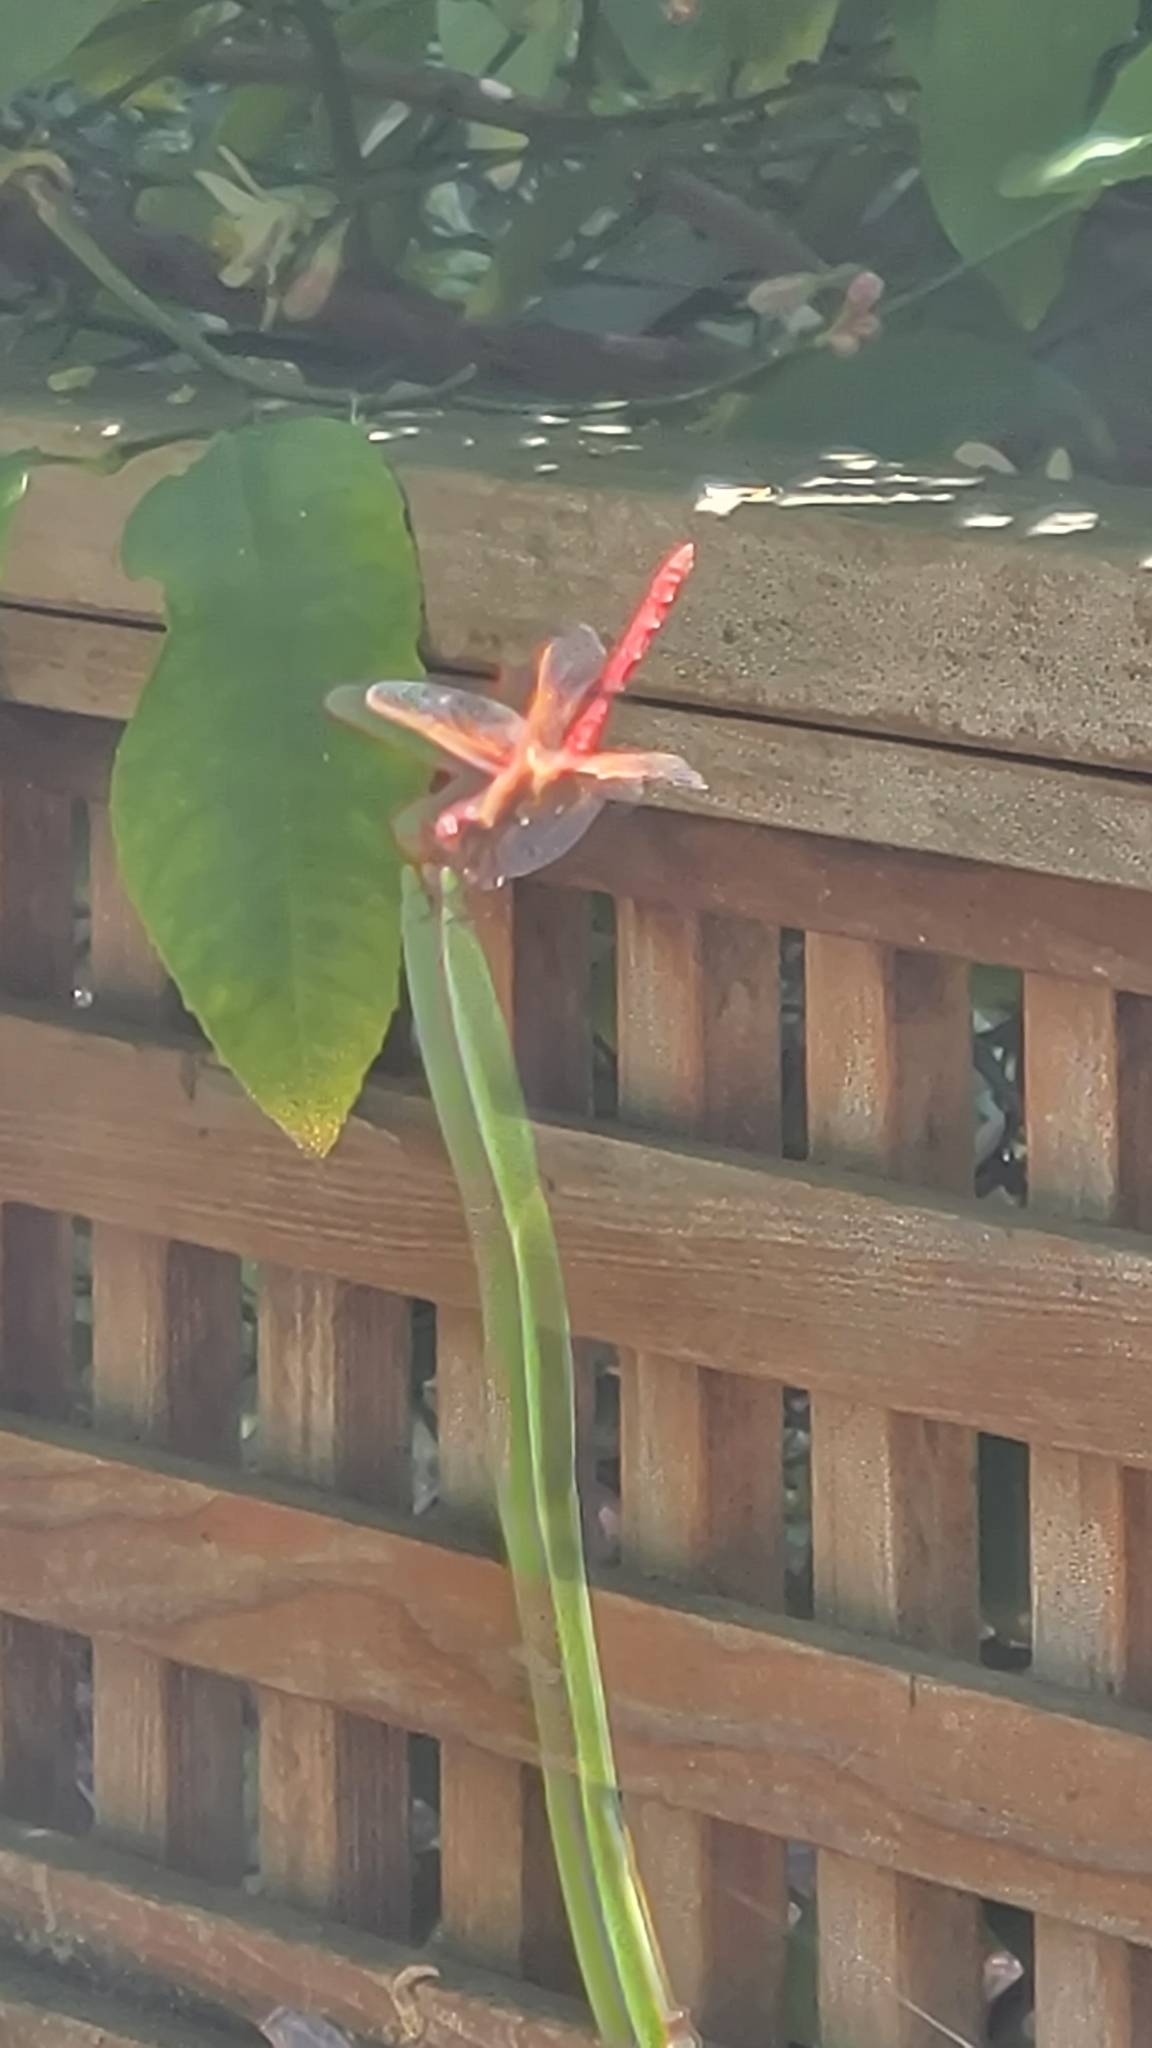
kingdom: Animalia
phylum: Arthropoda
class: Insecta
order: Odonata
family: Libellulidae
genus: Sympetrum
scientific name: Sympetrum illotum
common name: Cardinal meadowhawk
